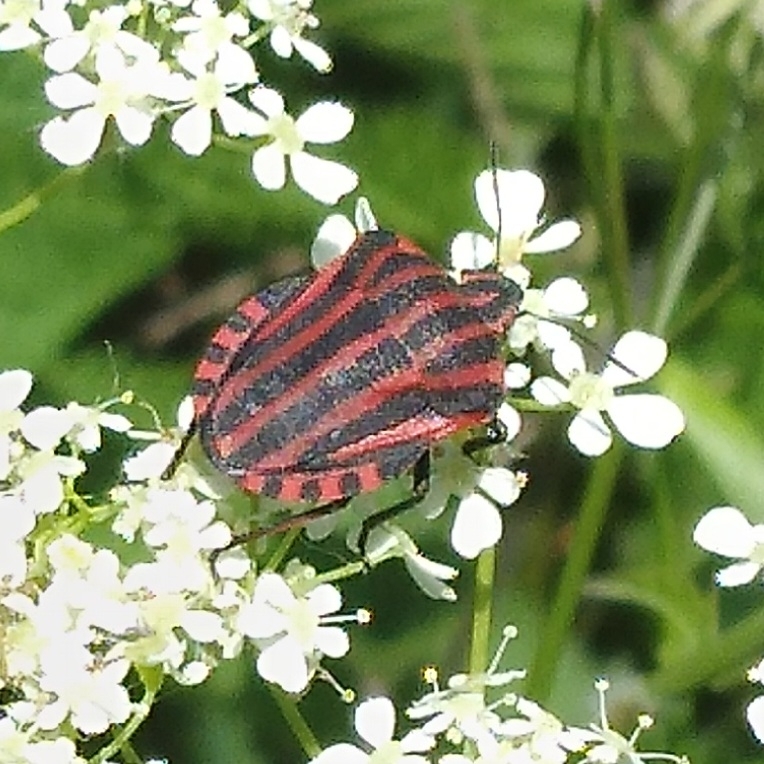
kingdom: Animalia
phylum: Arthropoda
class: Insecta
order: Hemiptera
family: Pentatomidae
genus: Graphosoma
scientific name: Graphosoma italicum
